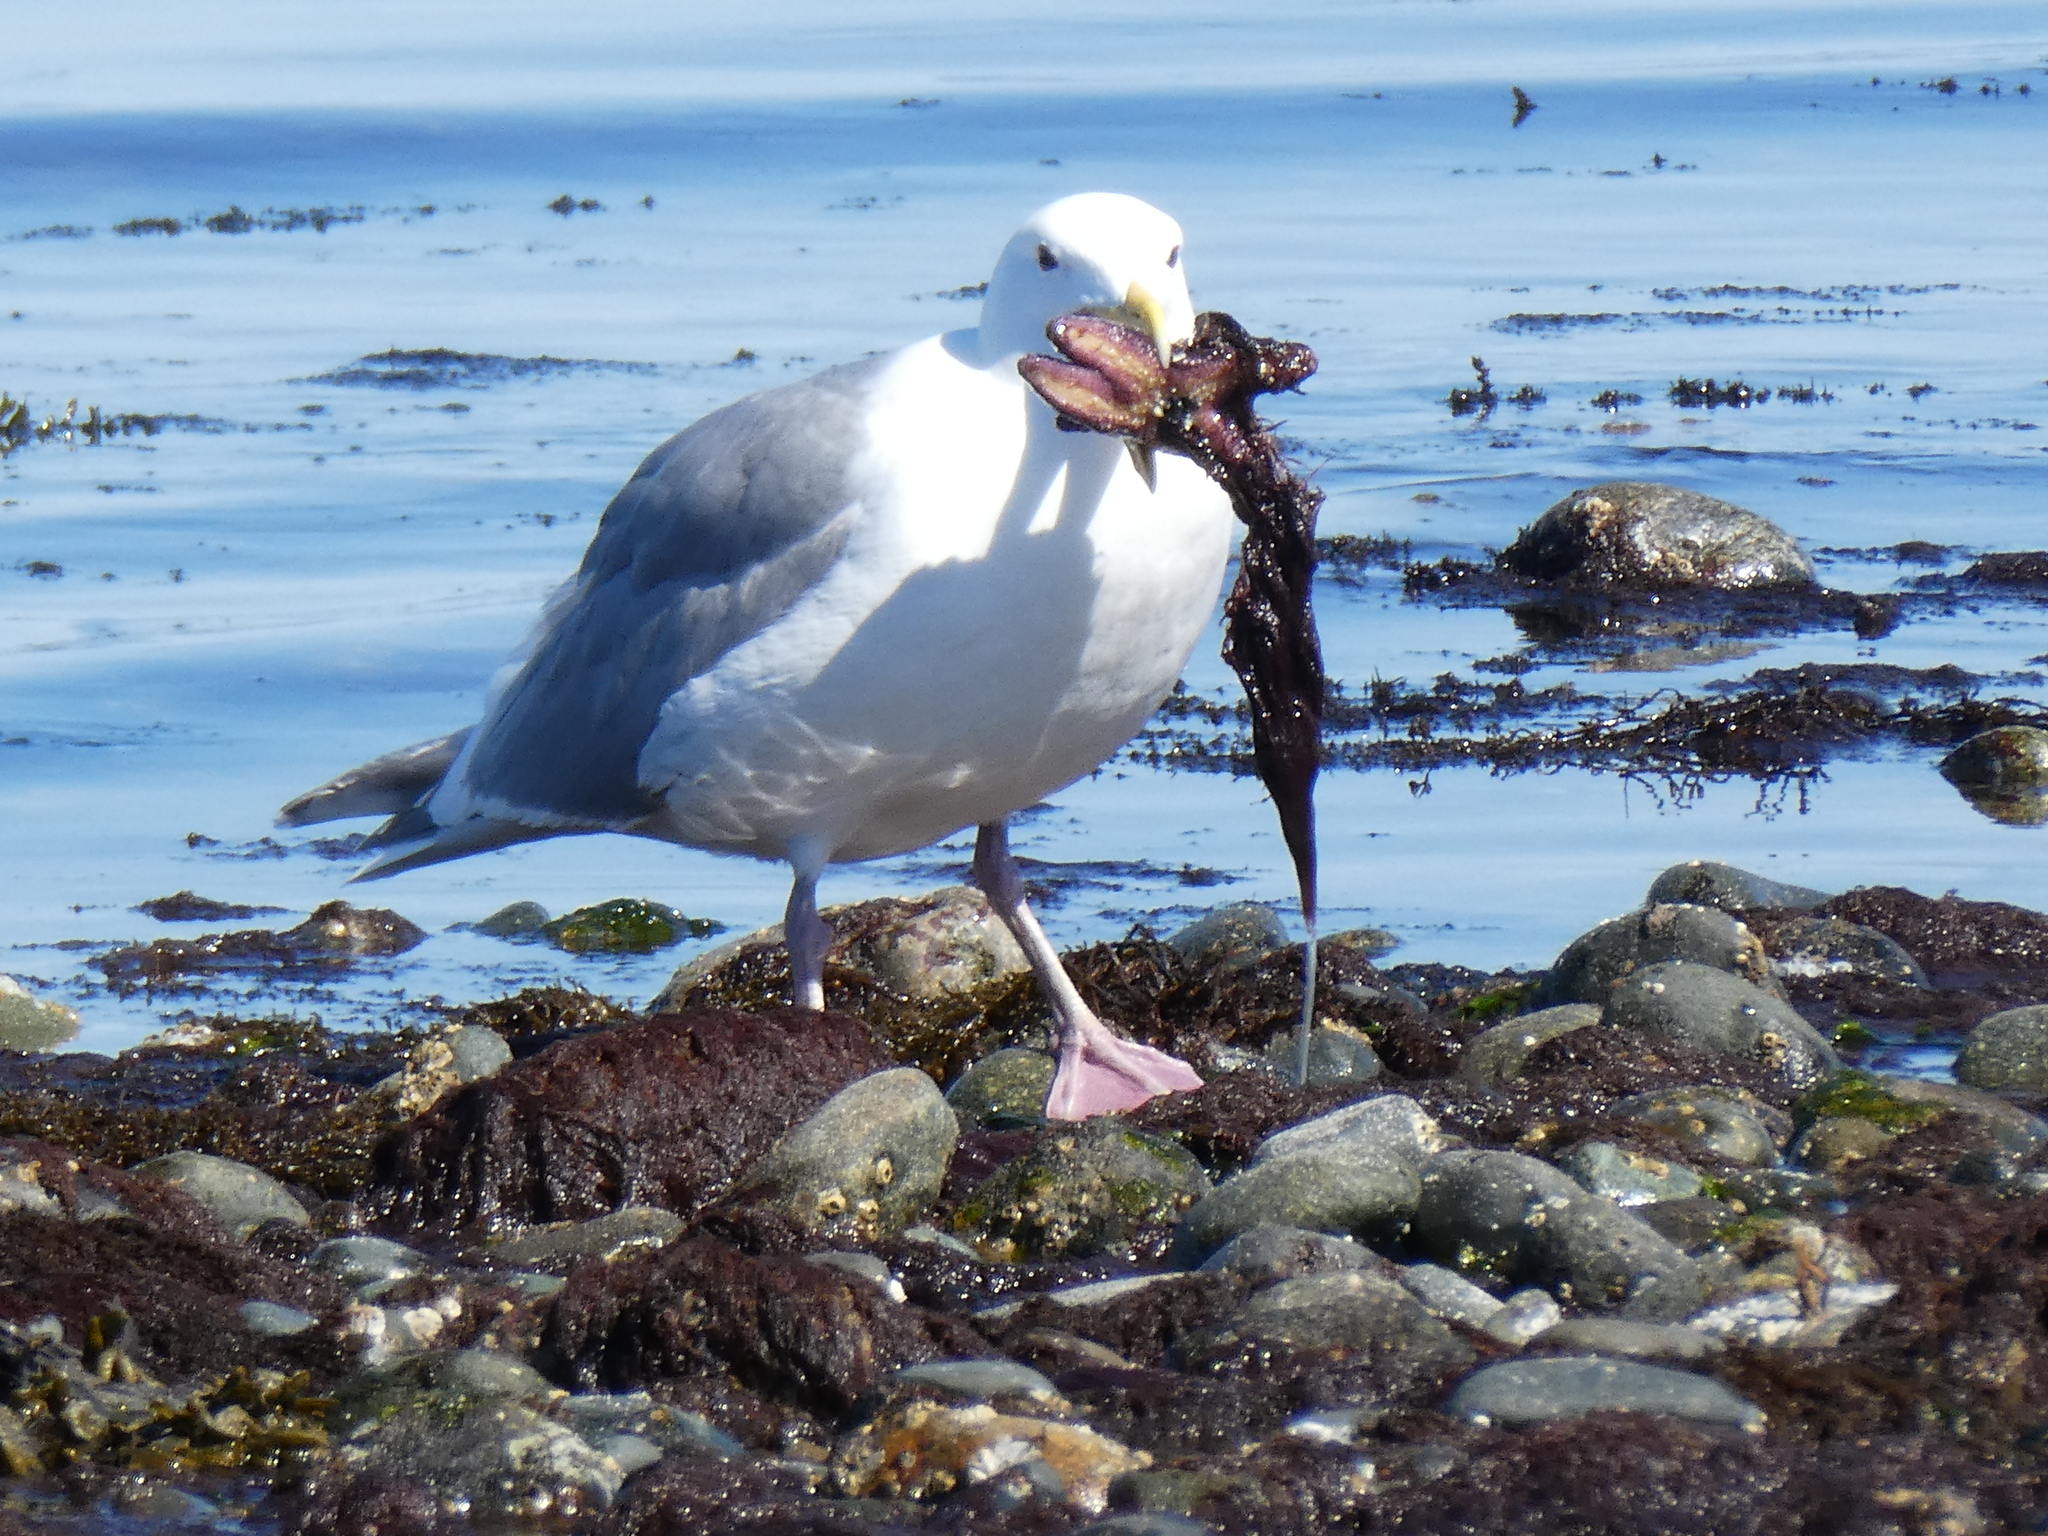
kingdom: Animalia
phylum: Chordata
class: Aves
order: Charadriiformes
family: Laridae
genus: Larus
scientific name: Larus
